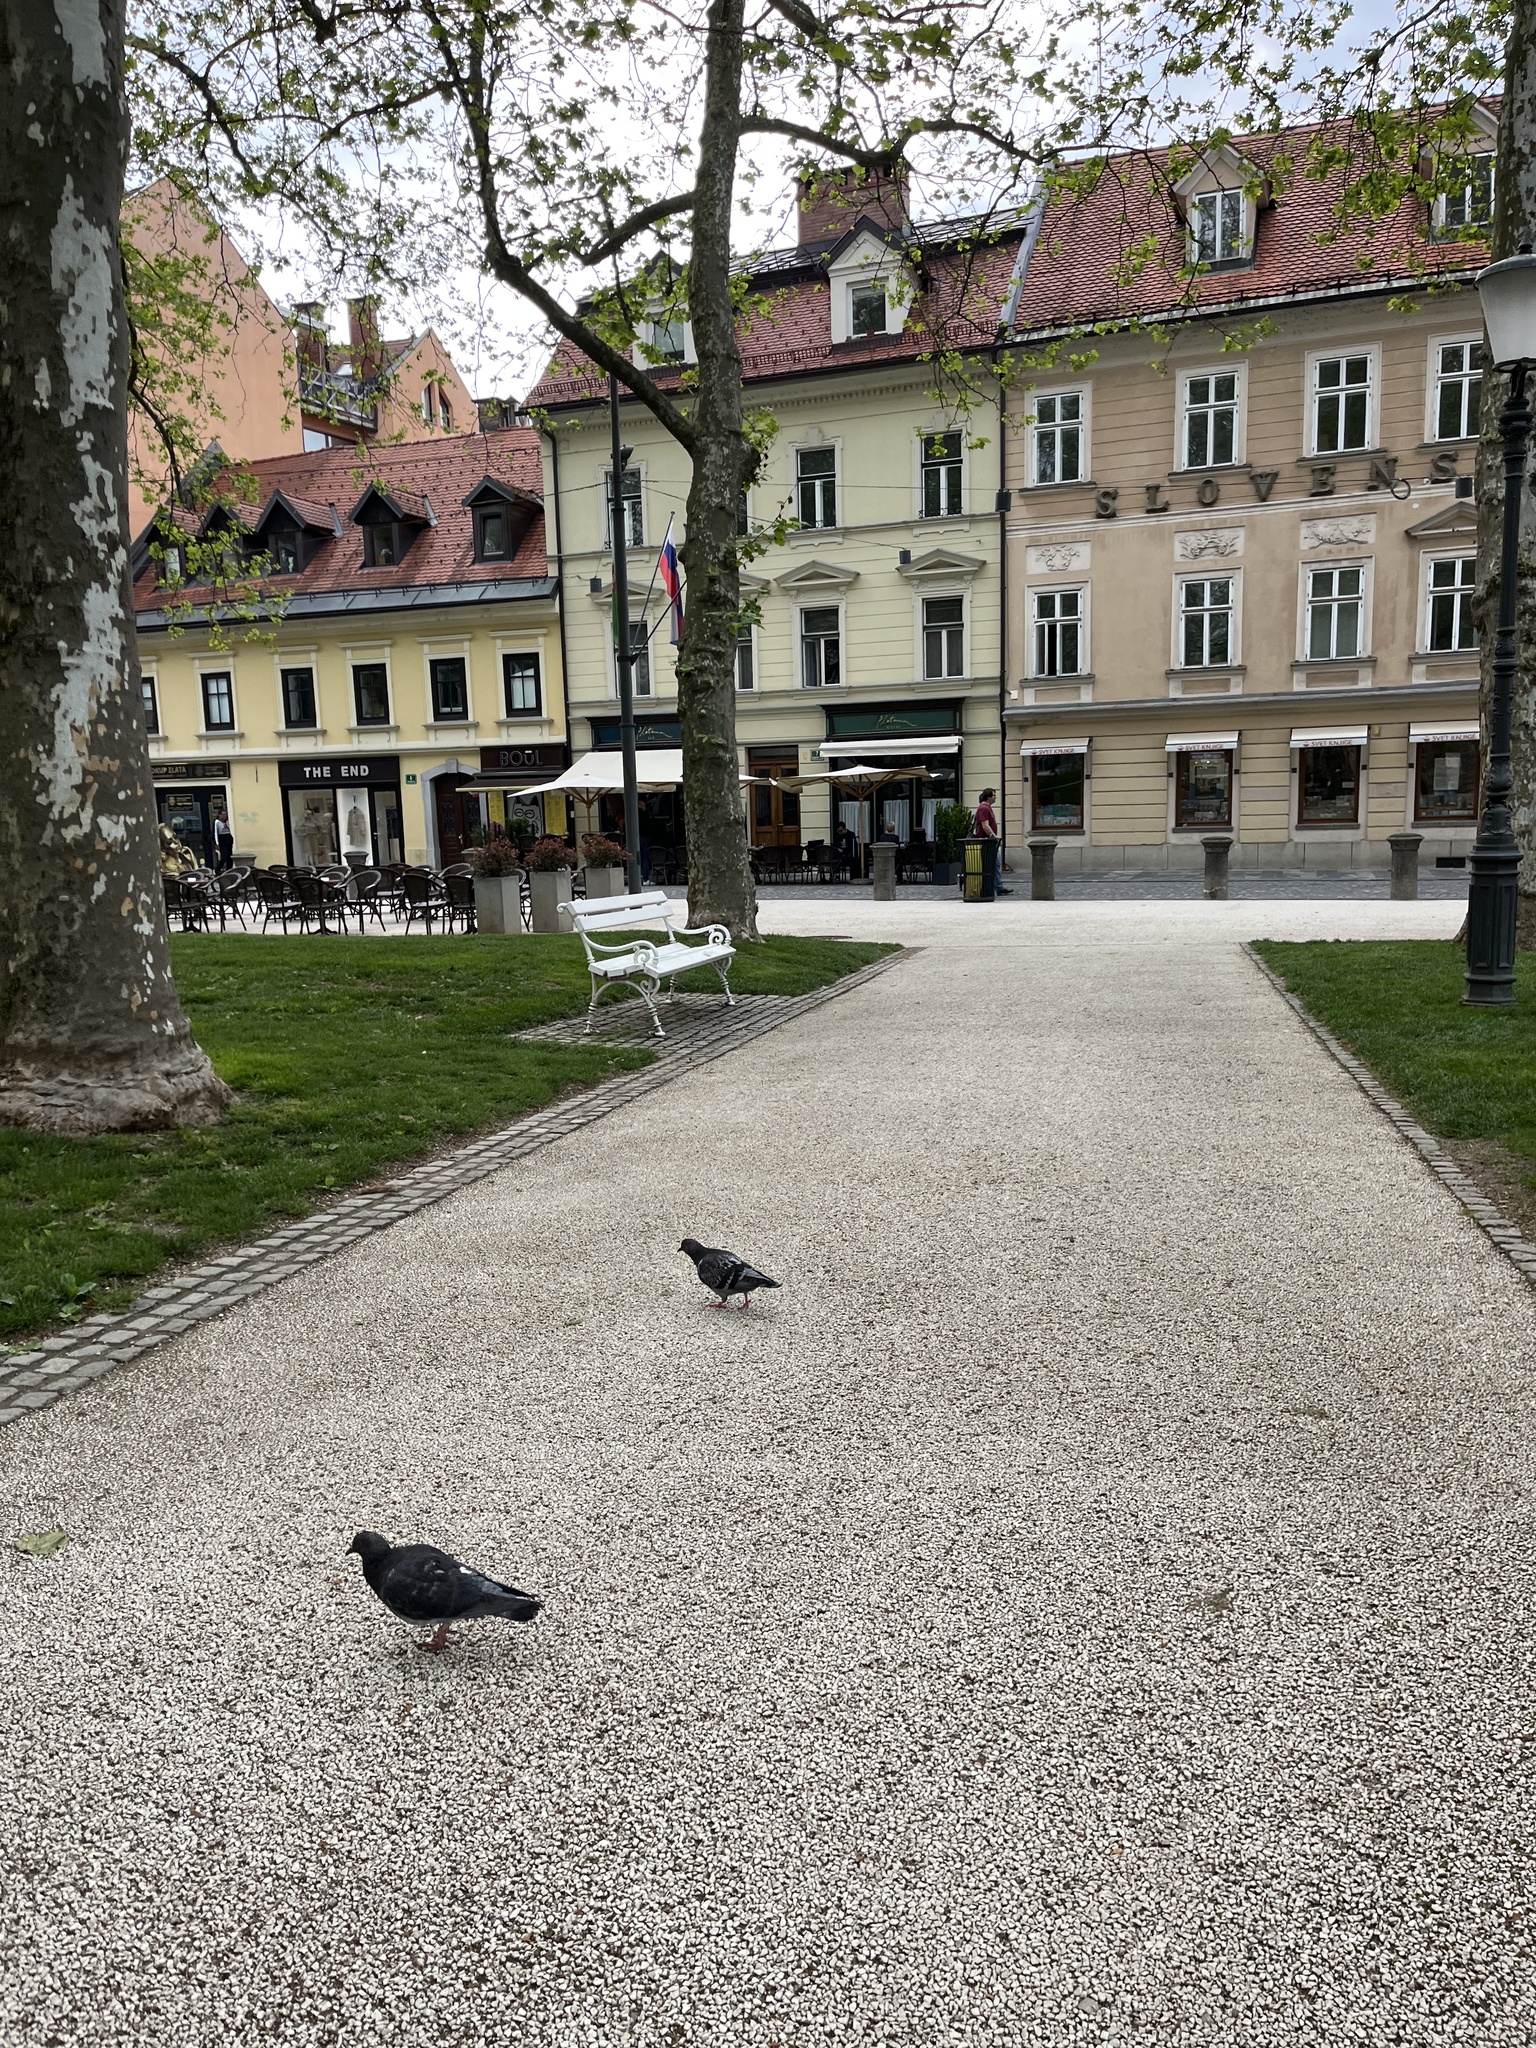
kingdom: Animalia
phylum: Chordata
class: Aves
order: Columbiformes
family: Columbidae
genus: Columba
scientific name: Columba livia
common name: Rock pigeon
